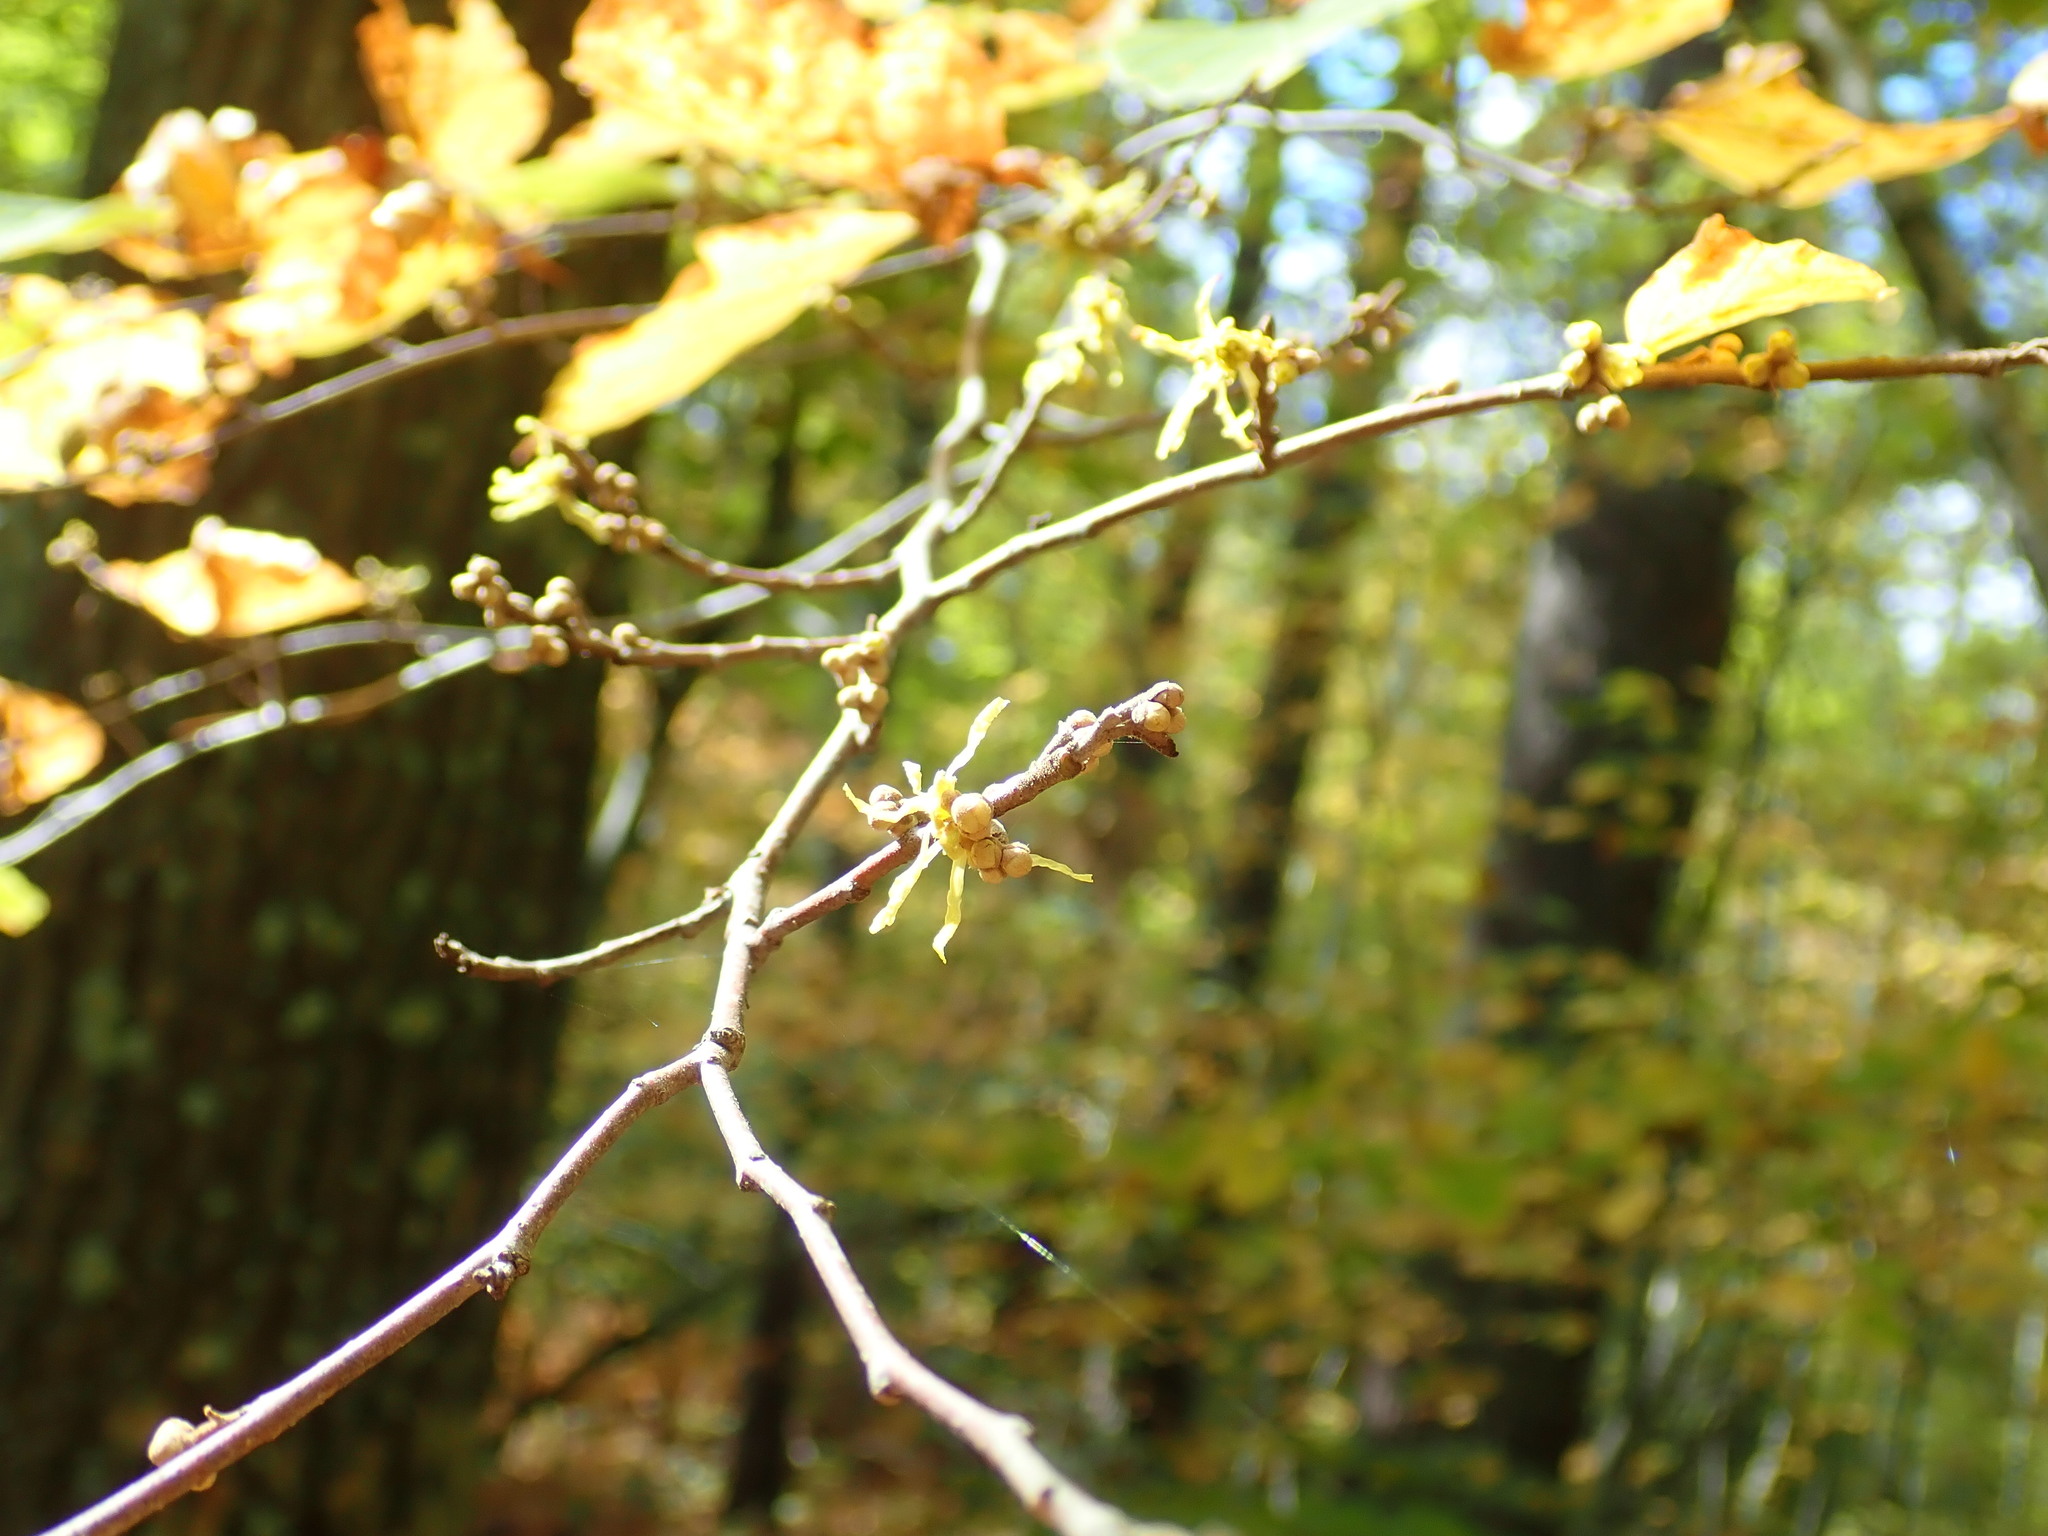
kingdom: Plantae
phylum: Tracheophyta
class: Magnoliopsida
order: Saxifragales
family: Hamamelidaceae
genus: Hamamelis
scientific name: Hamamelis virginiana
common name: Witch-hazel
